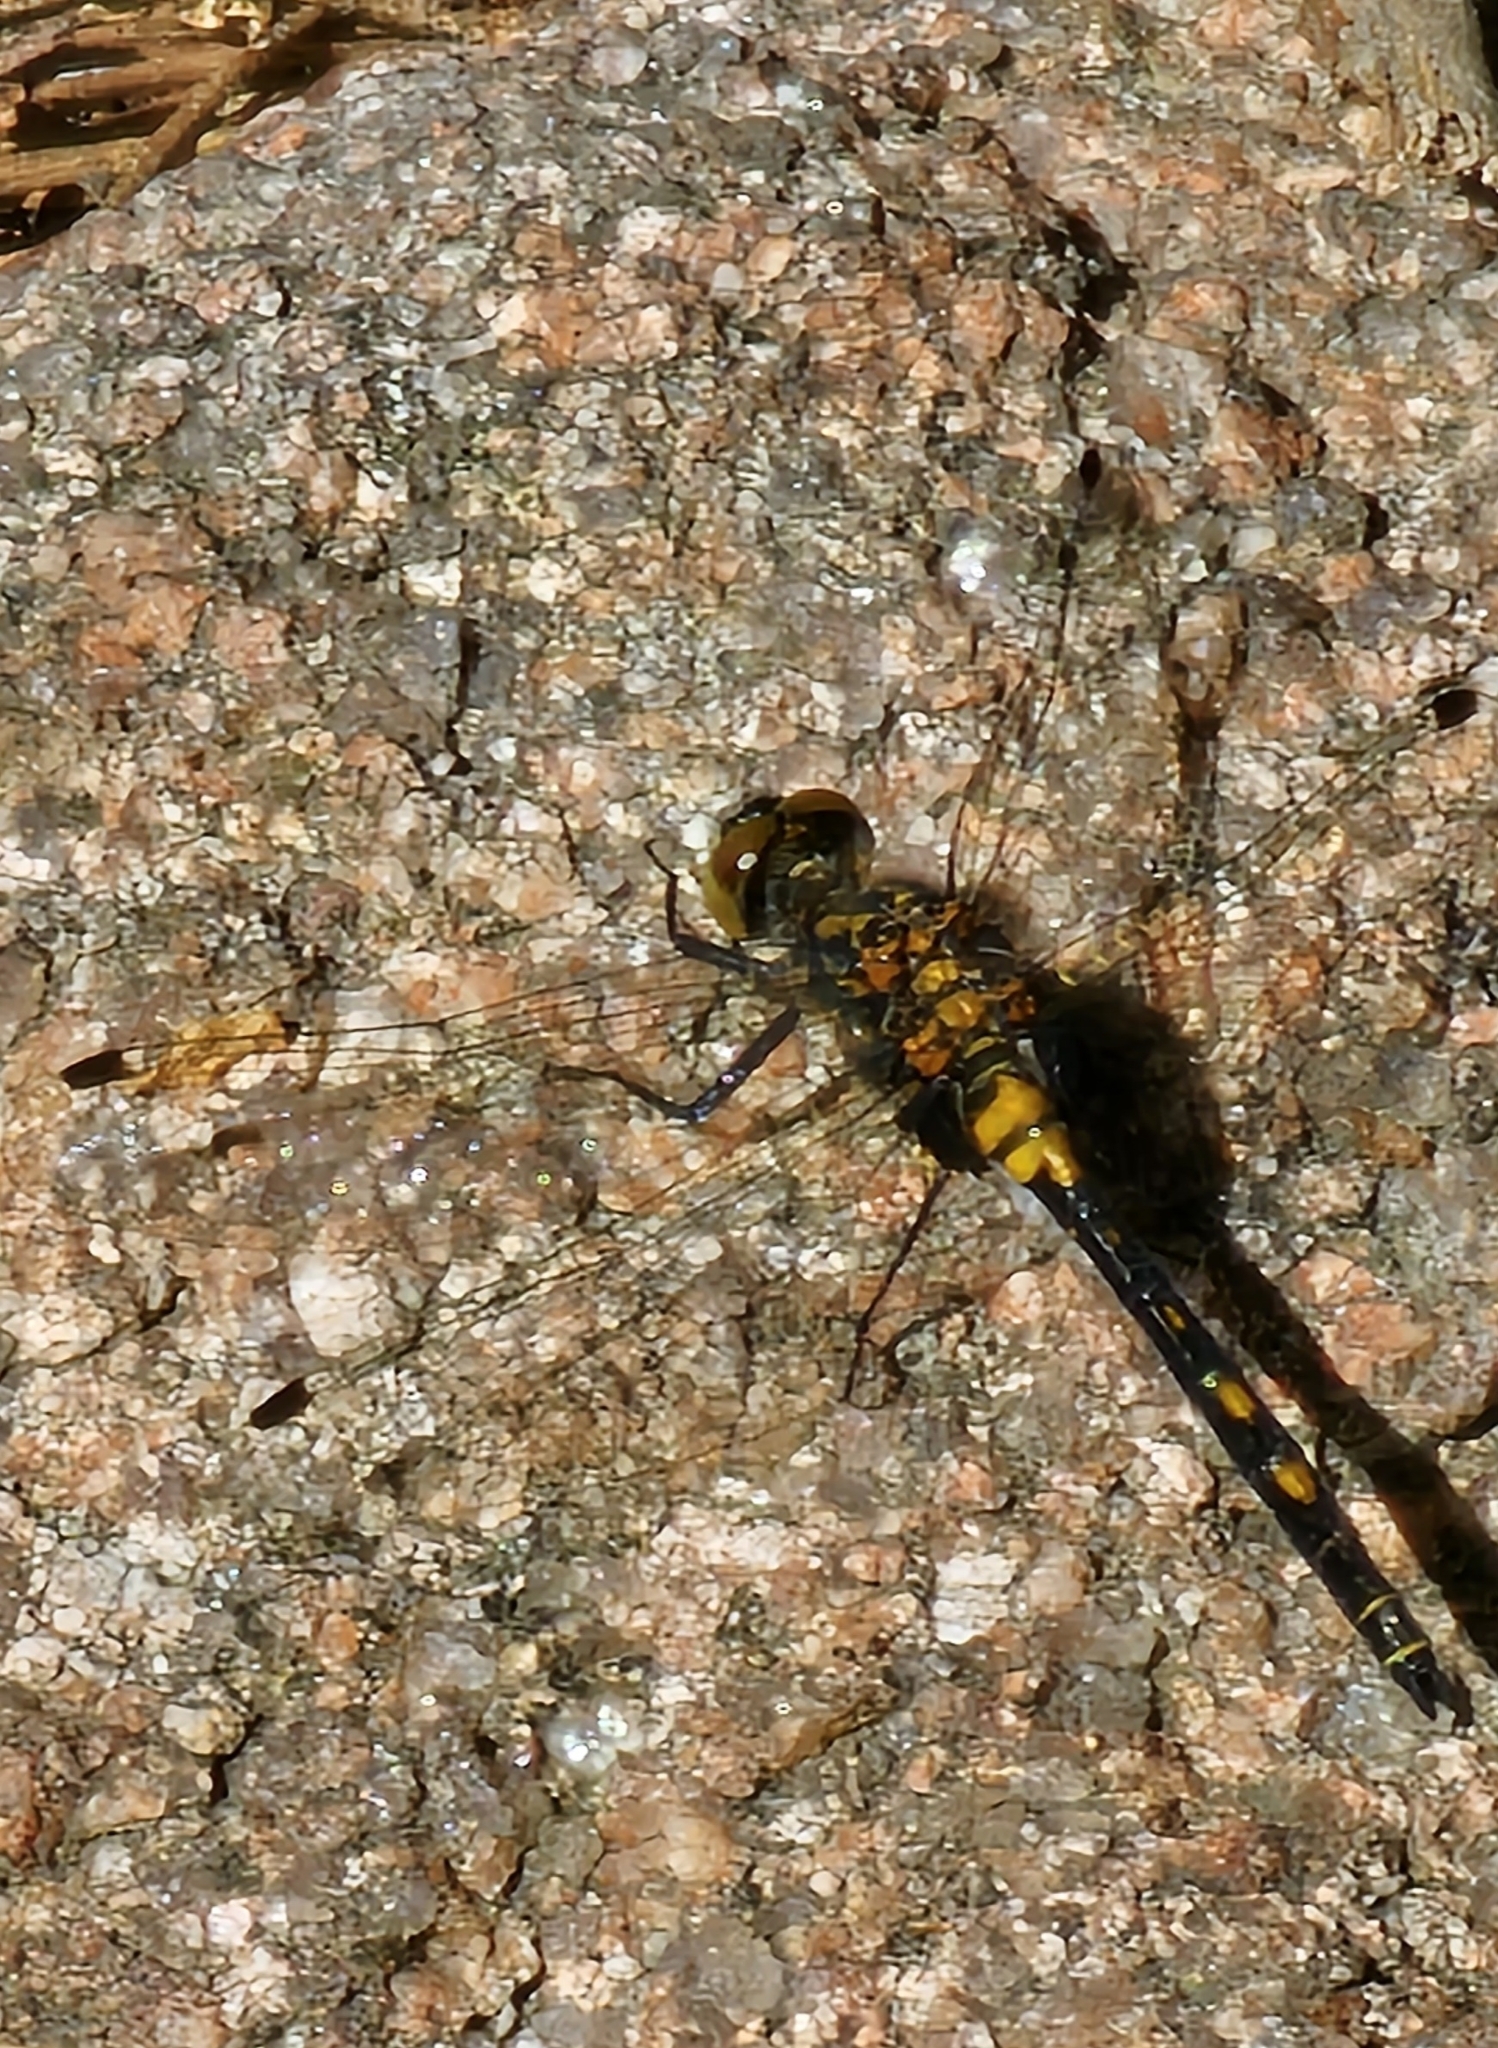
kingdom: Animalia
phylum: Arthropoda
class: Insecta
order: Odonata
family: Libellulidae
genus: Leucorrhinia
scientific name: Leucorrhinia dubia
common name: White-faced darter
